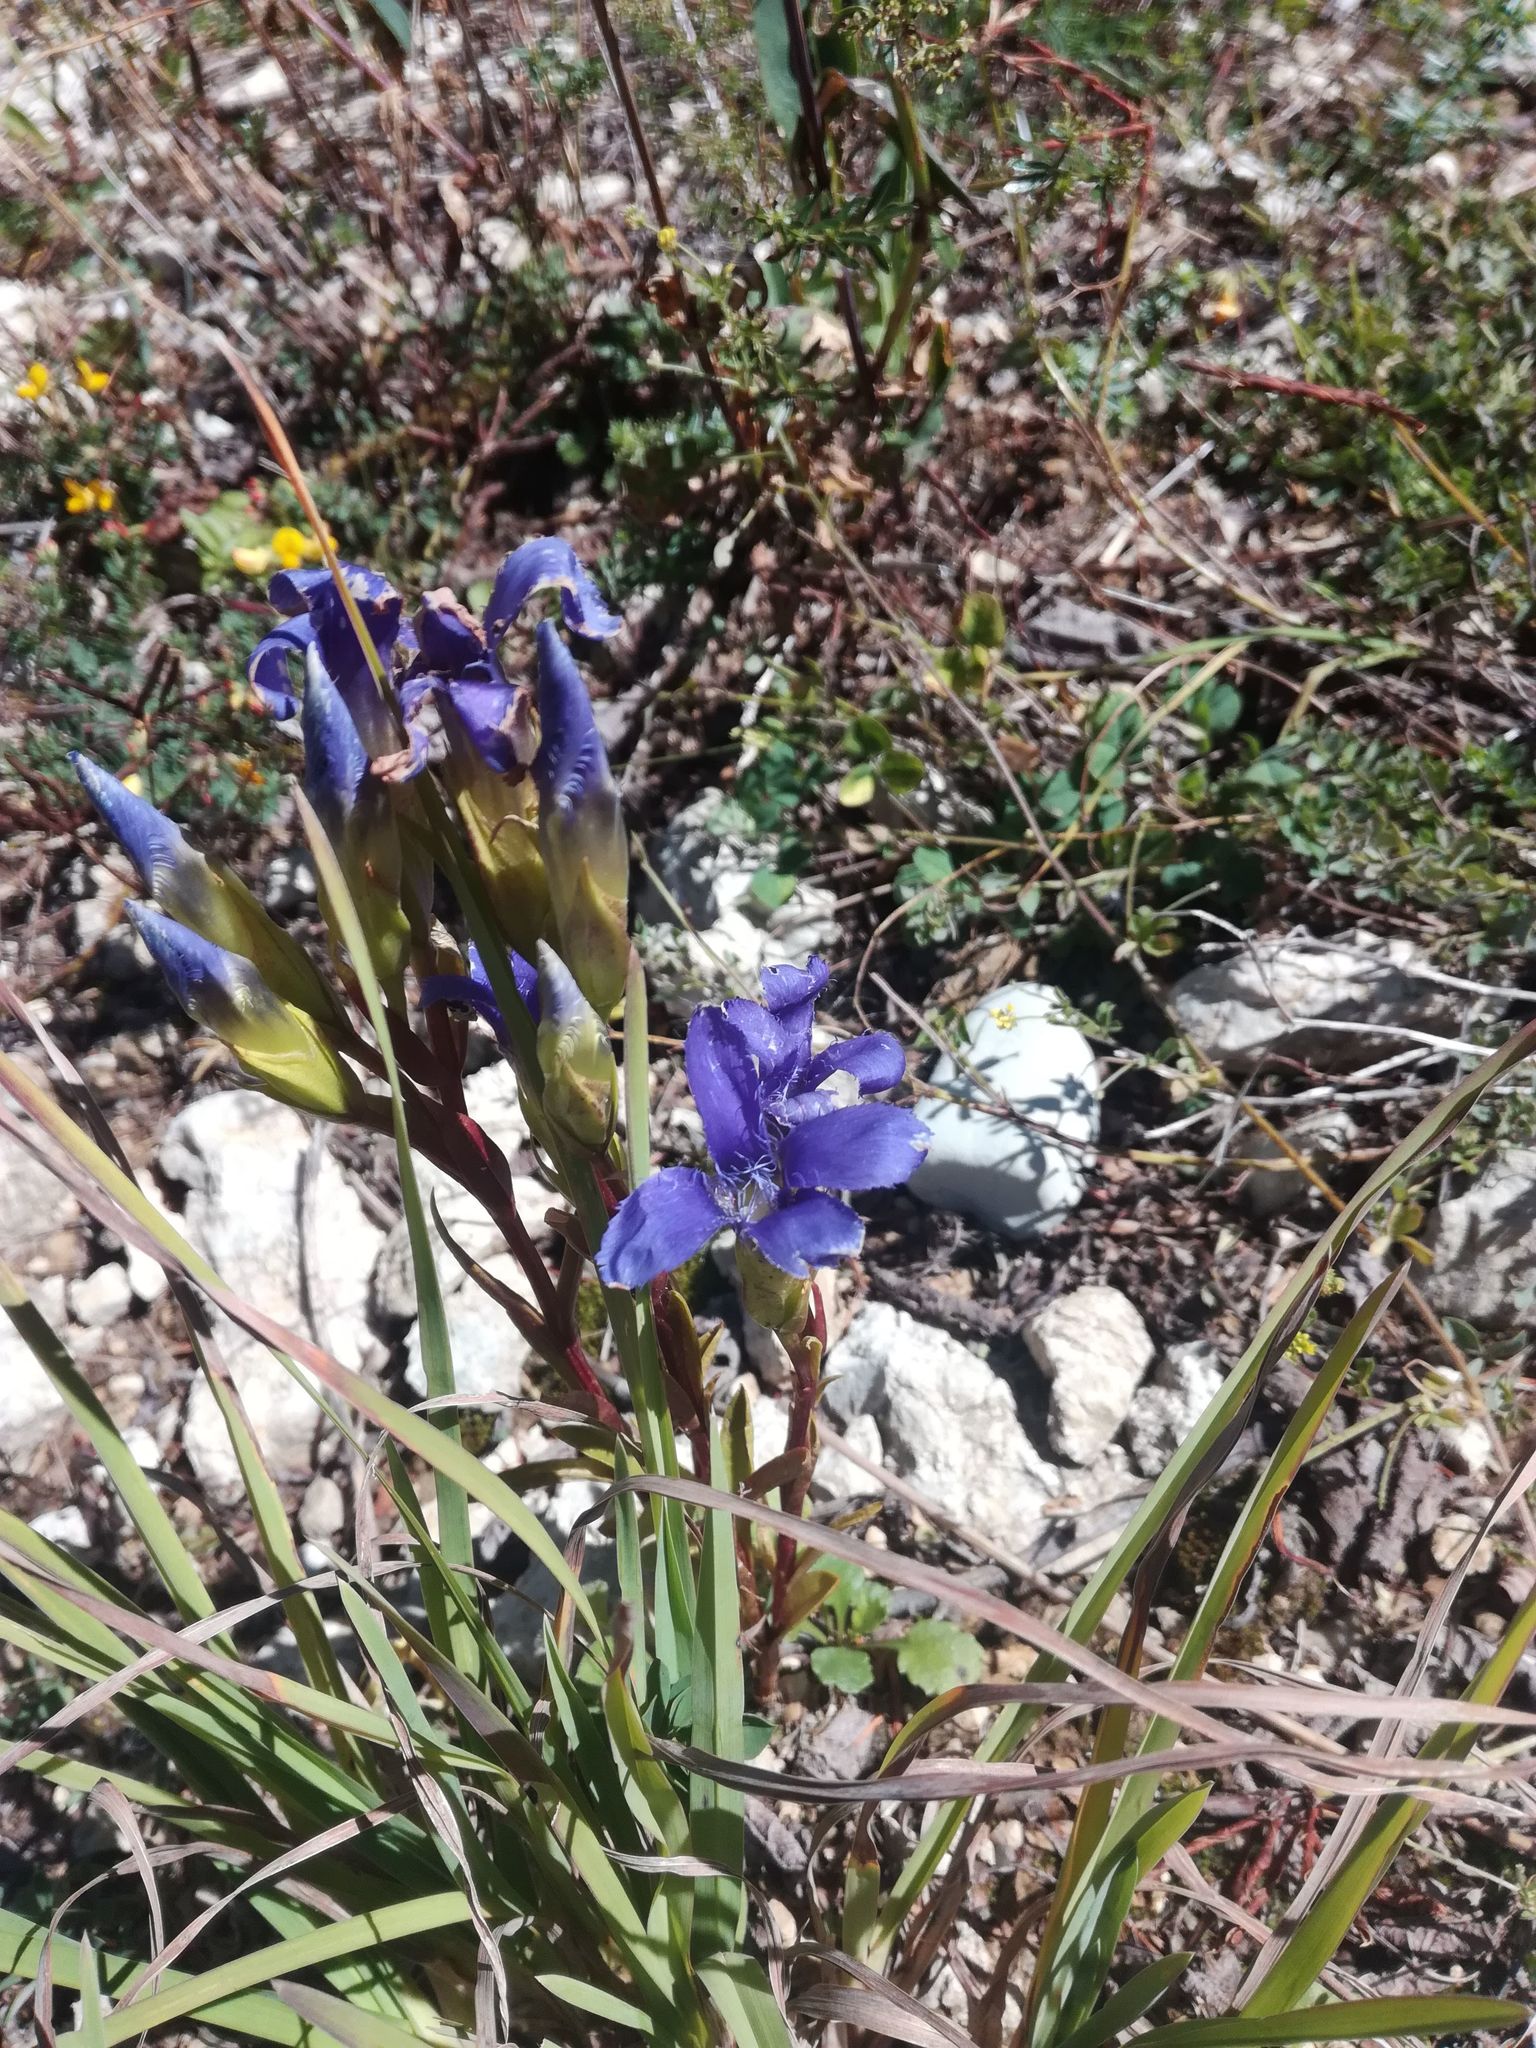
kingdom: Plantae
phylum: Tracheophyta
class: Magnoliopsida
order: Gentianales
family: Gentianaceae
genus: Gentianopsis
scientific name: Gentianopsis ciliata
